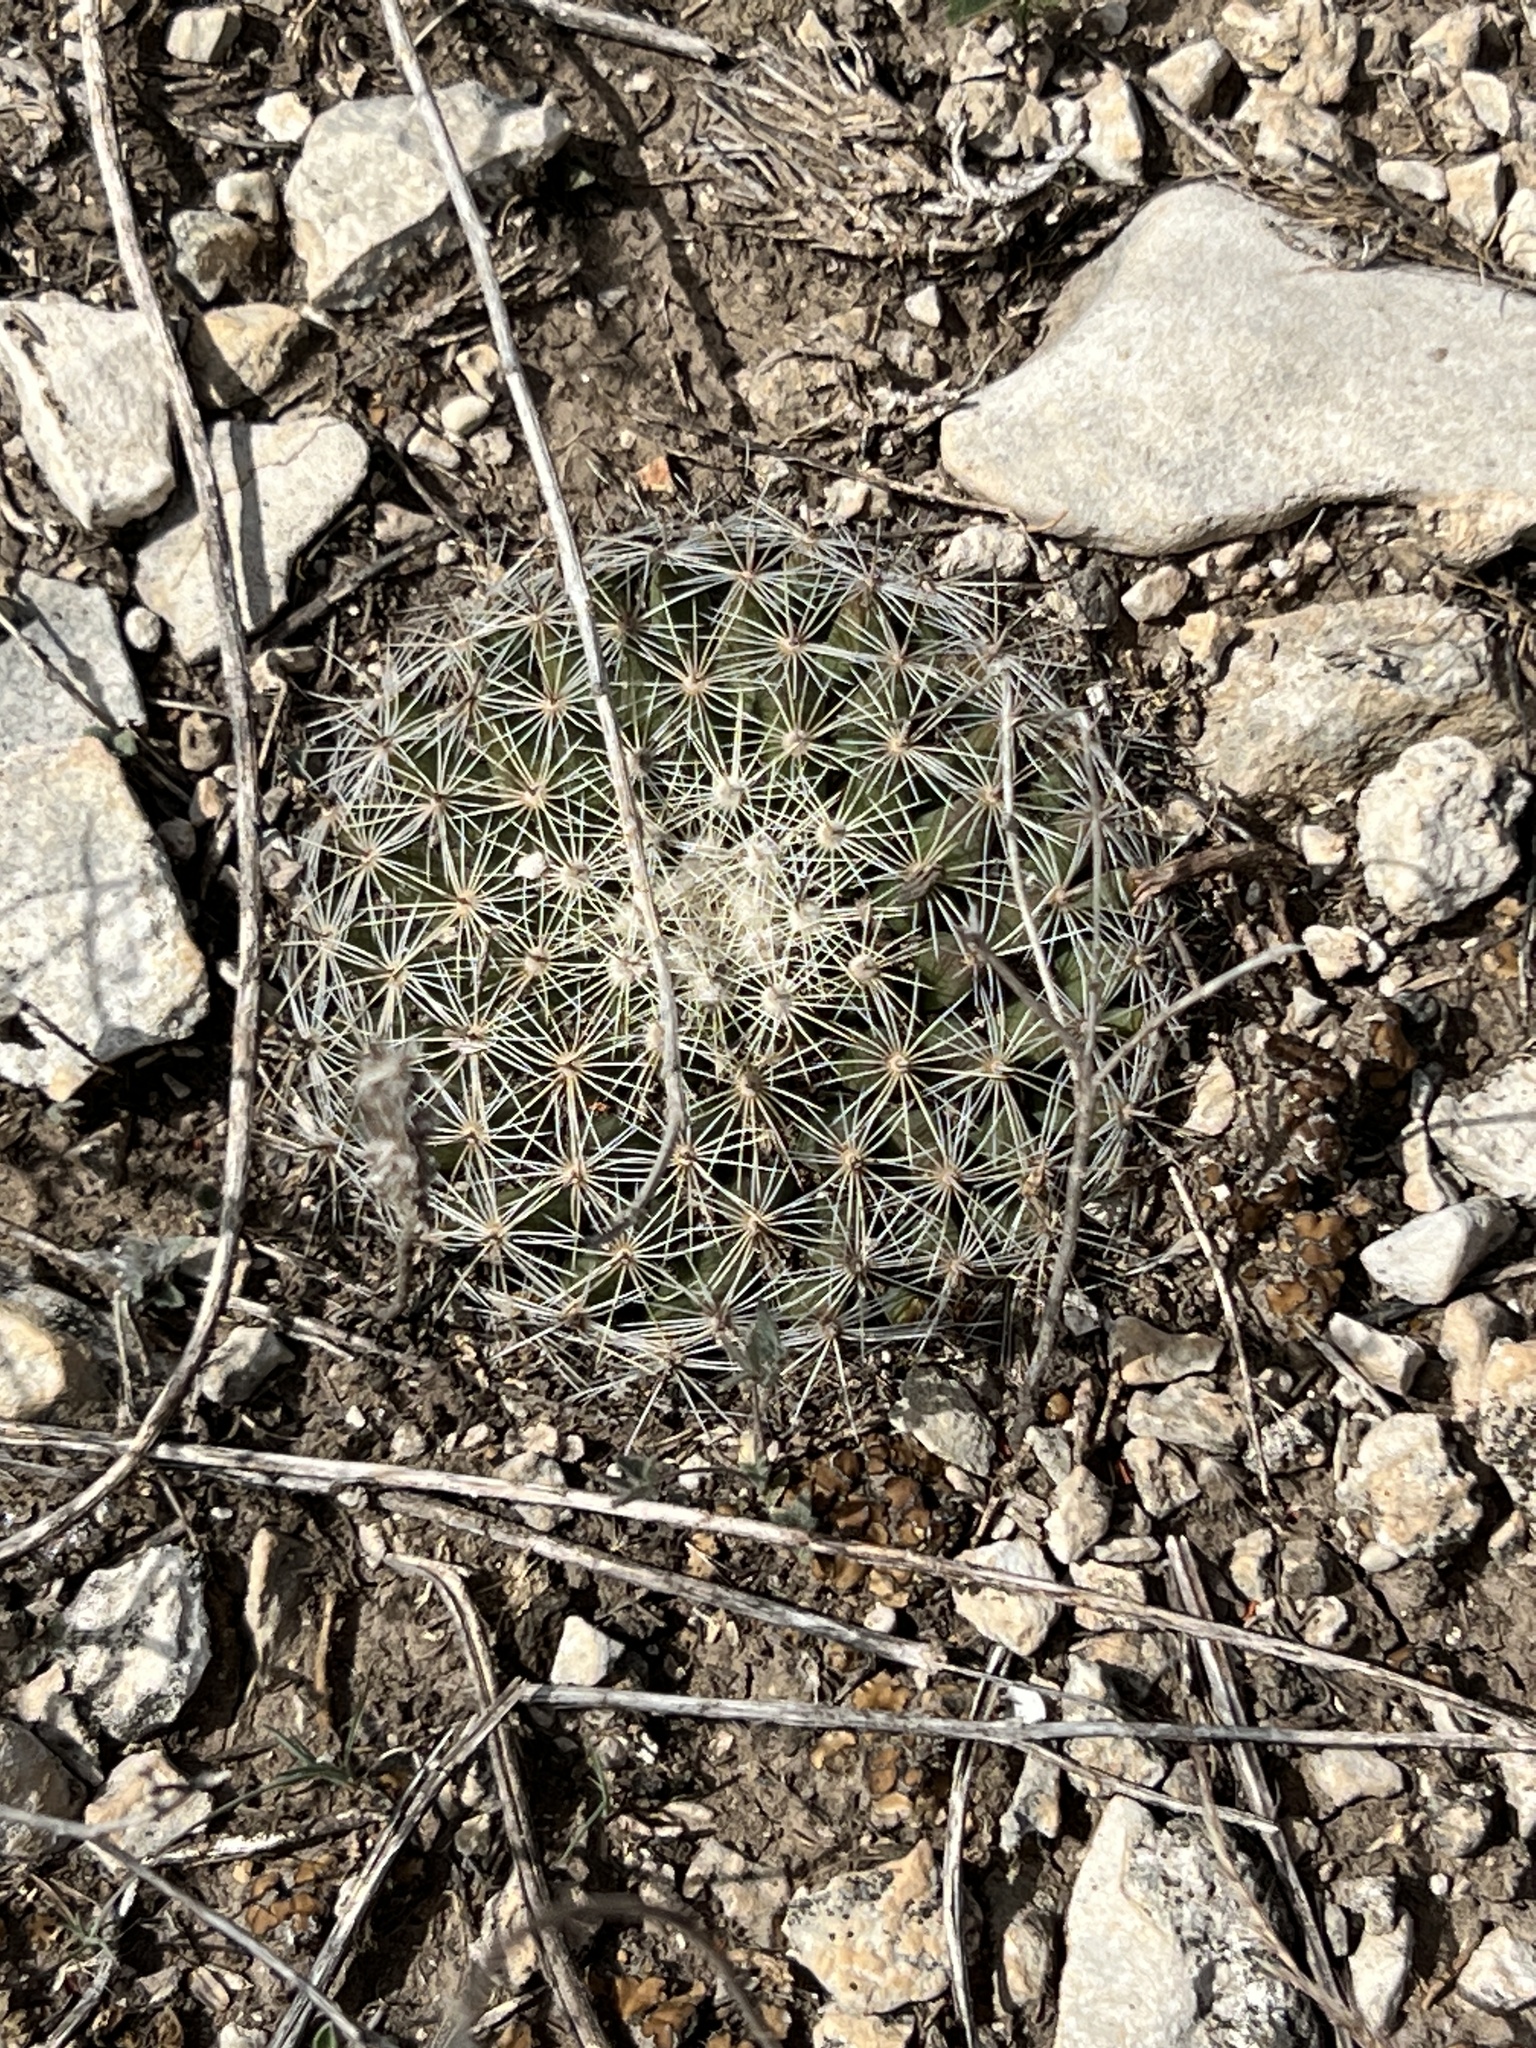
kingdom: Plantae
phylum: Tracheophyta
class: Magnoliopsida
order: Caryophyllales
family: Cactaceae
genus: Mammillaria
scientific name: Mammillaria heyderi
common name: Little nipple cactus
